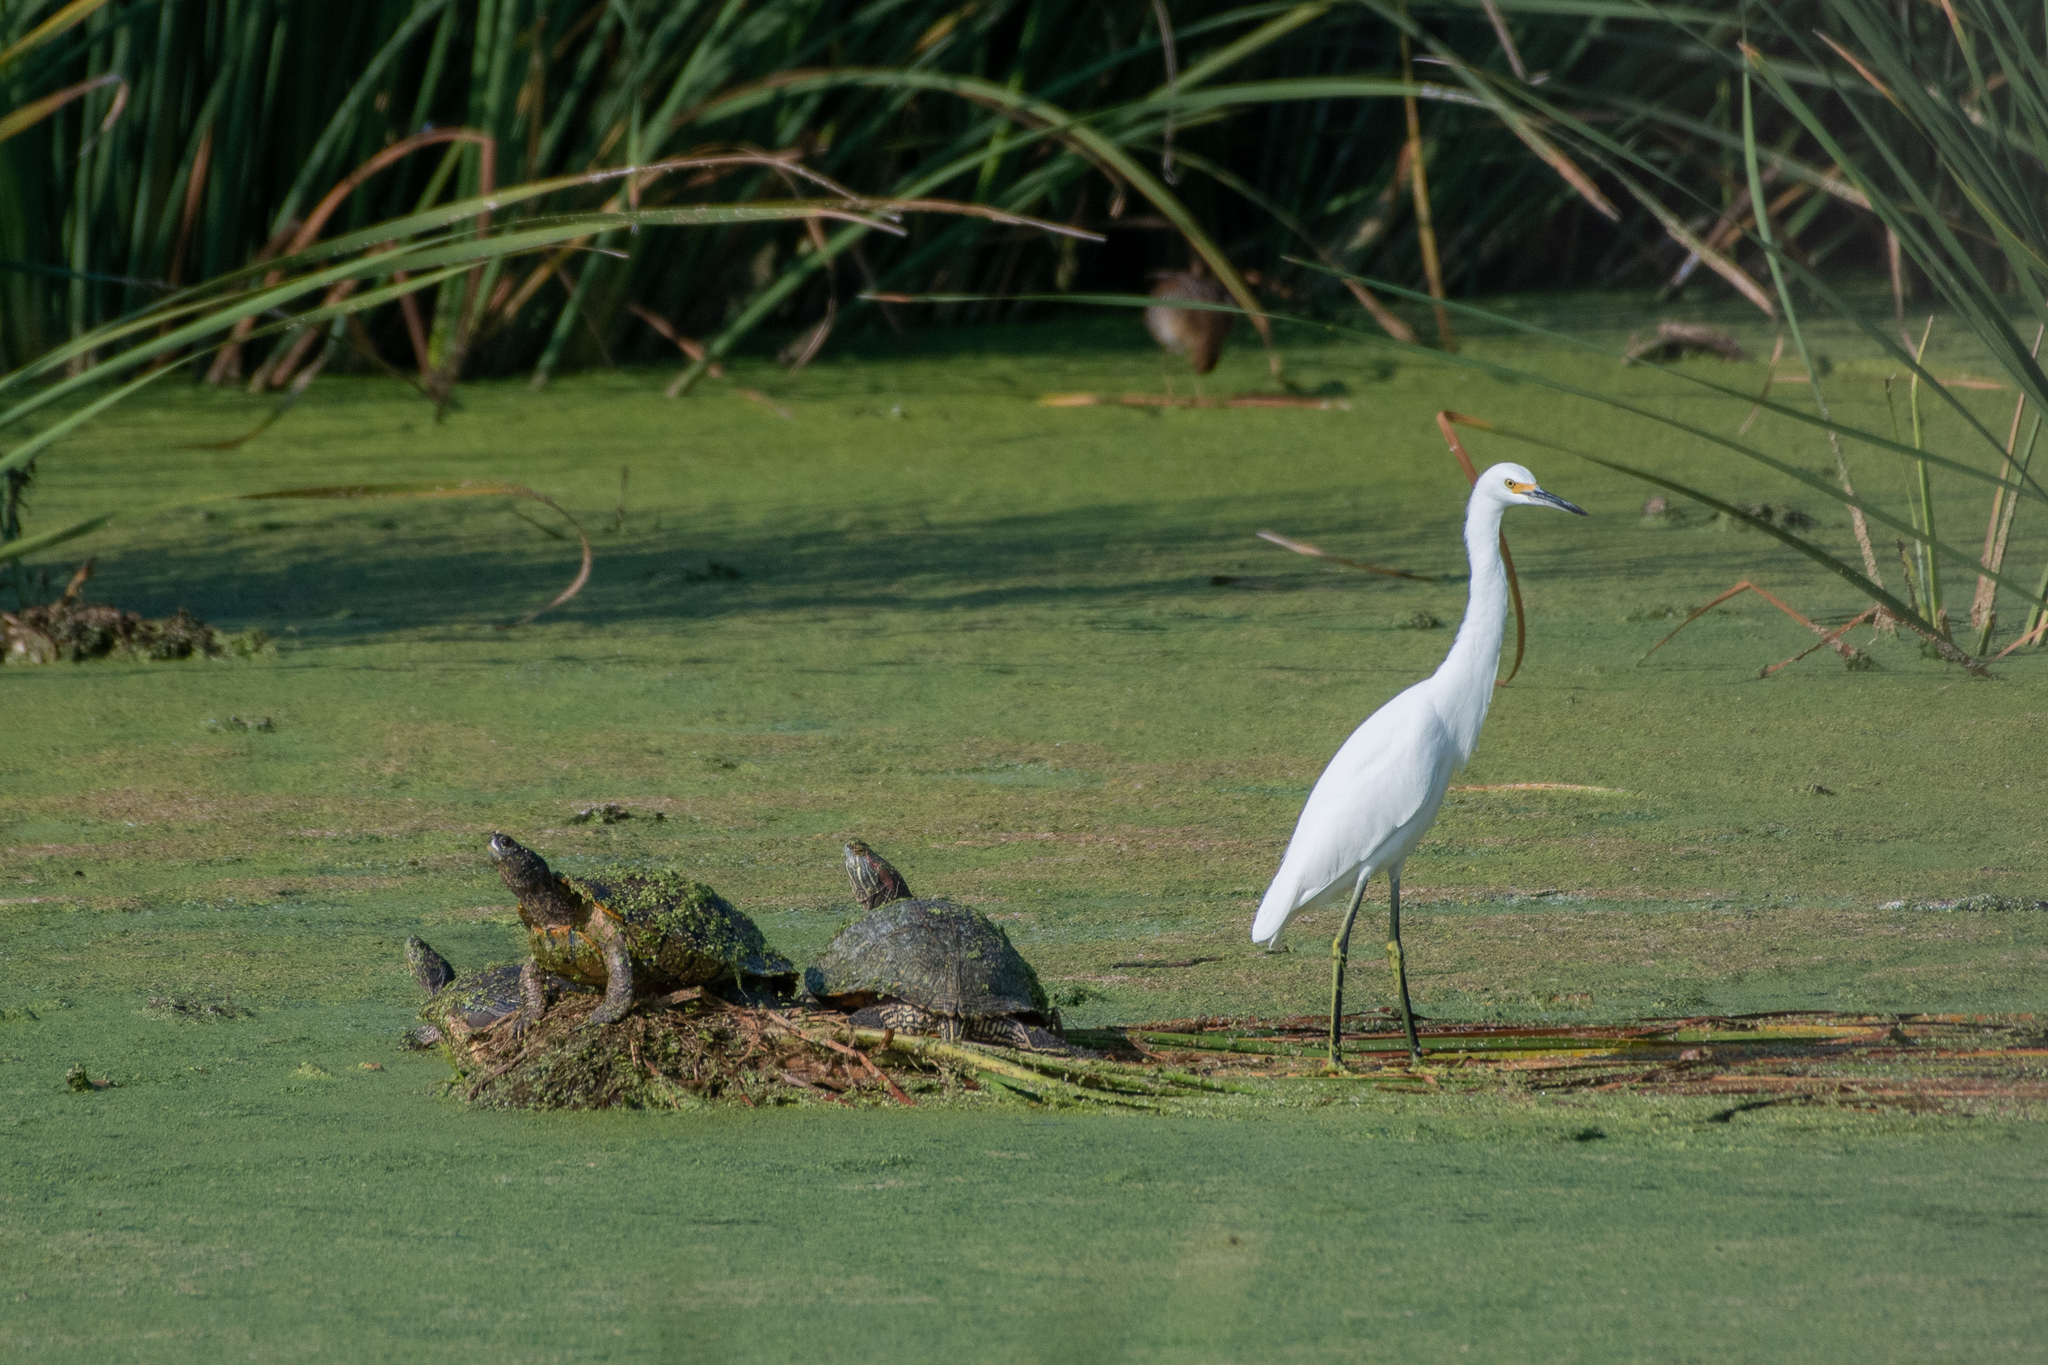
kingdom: Animalia
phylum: Chordata
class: Testudines
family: Emydidae
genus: Trachemys
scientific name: Trachemys scripta
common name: Slider
